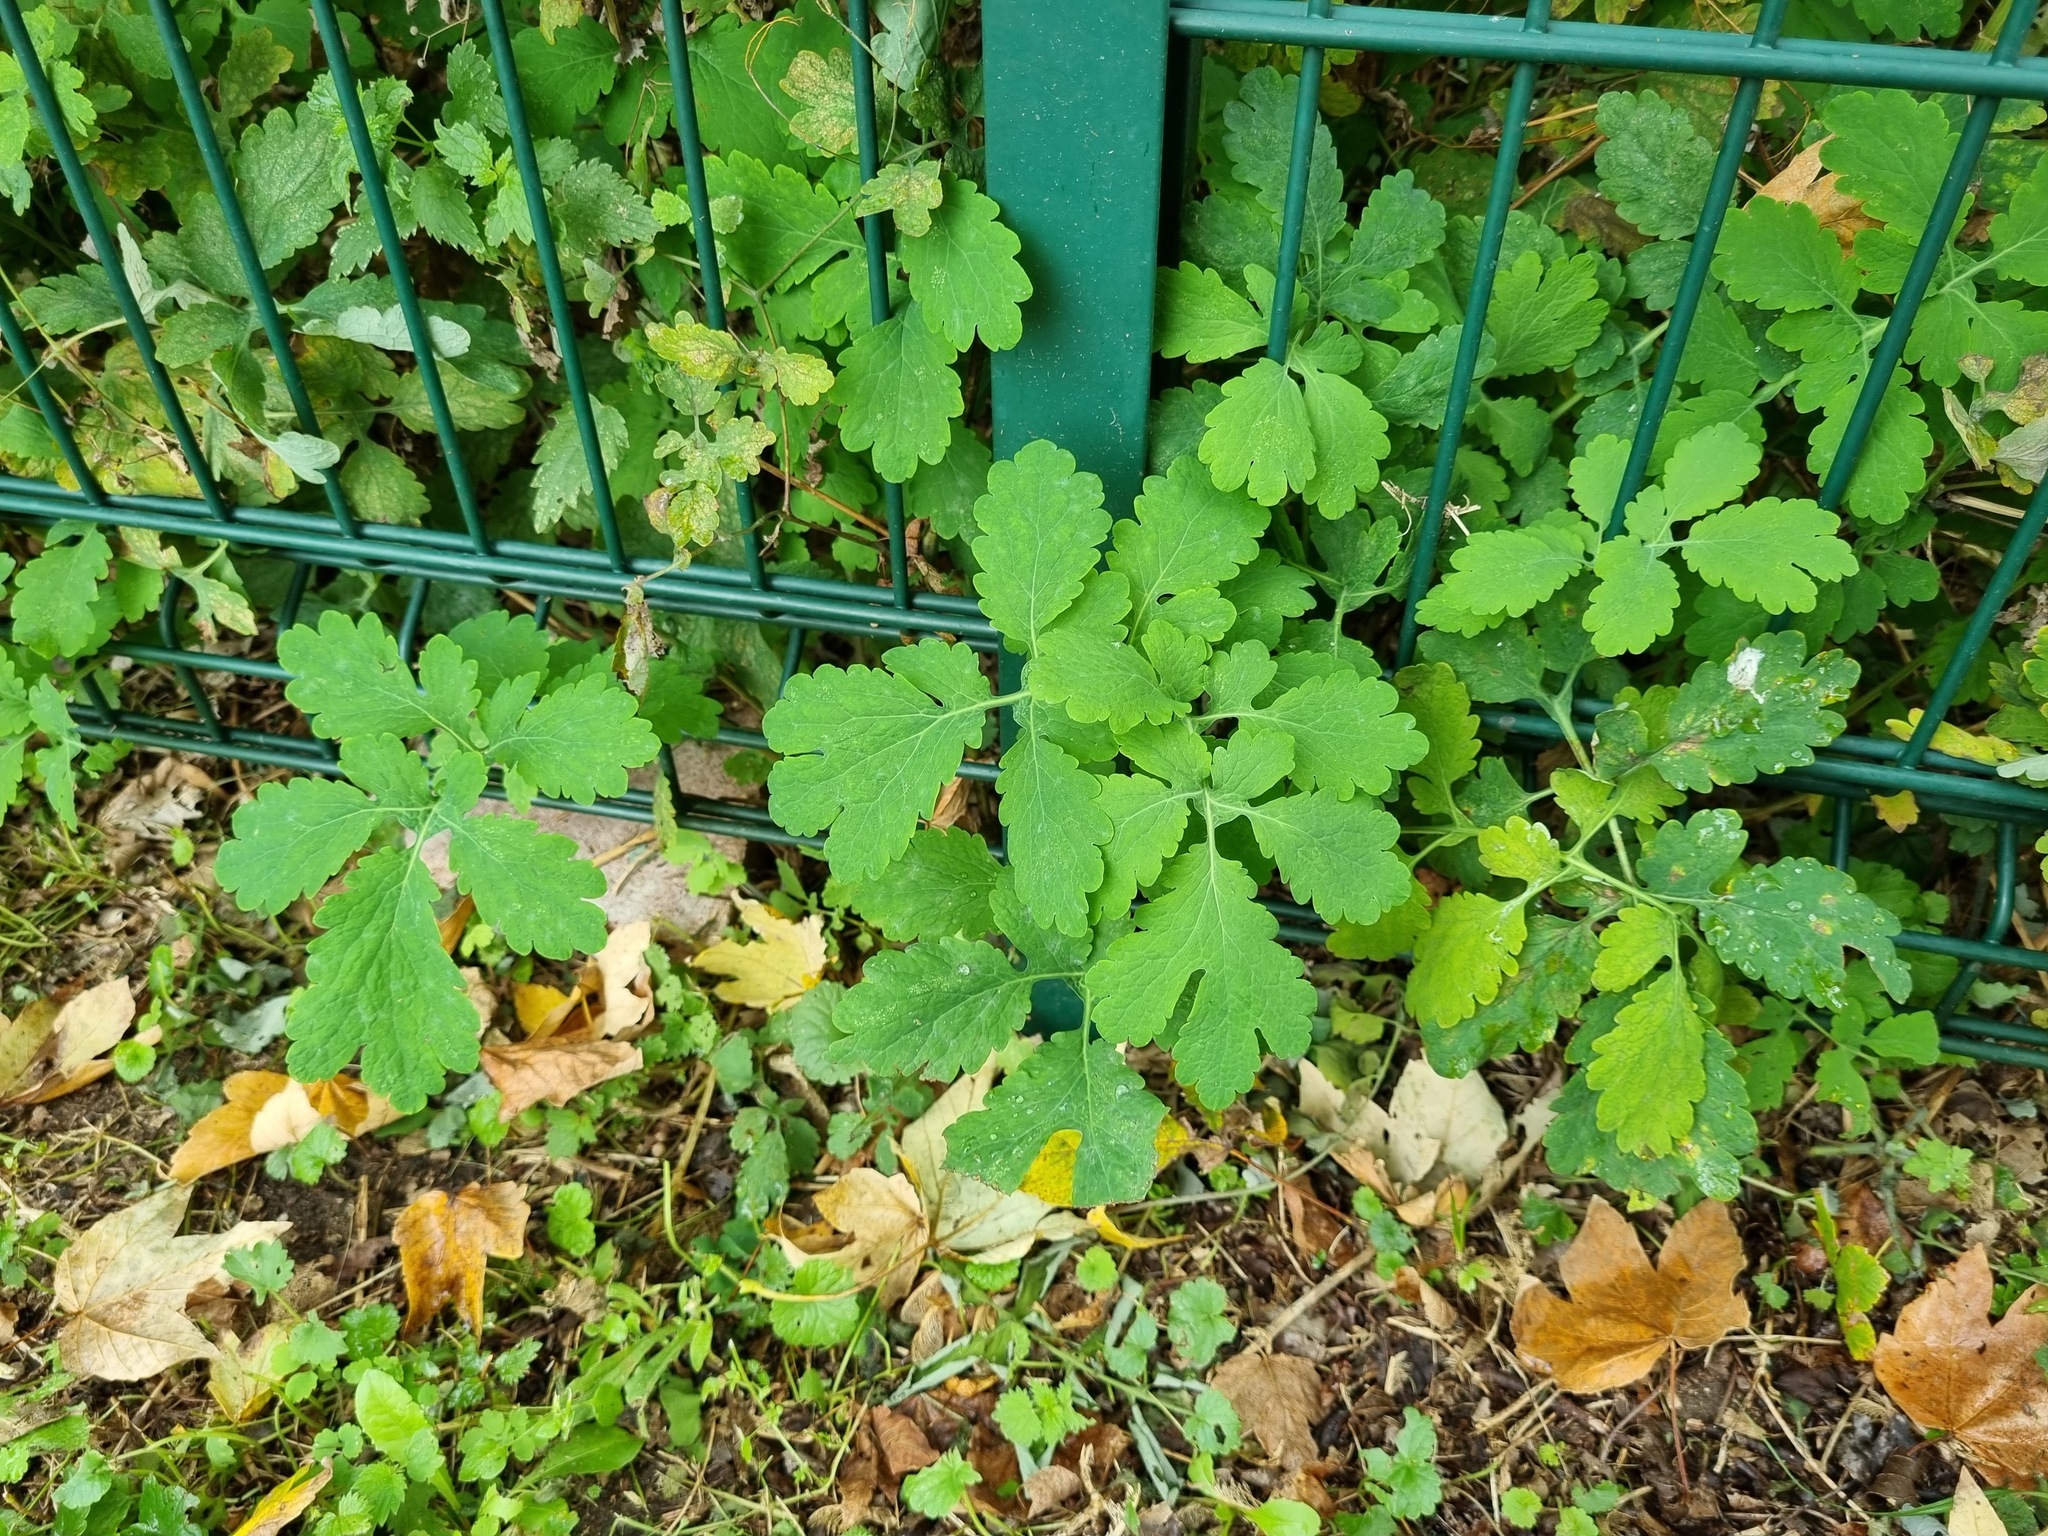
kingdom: Plantae
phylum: Tracheophyta
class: Magnoliopsida
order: Ranunculales
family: Papaveraceae
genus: Chelidonium
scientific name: Chelidonium majus
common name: Greater celandine
